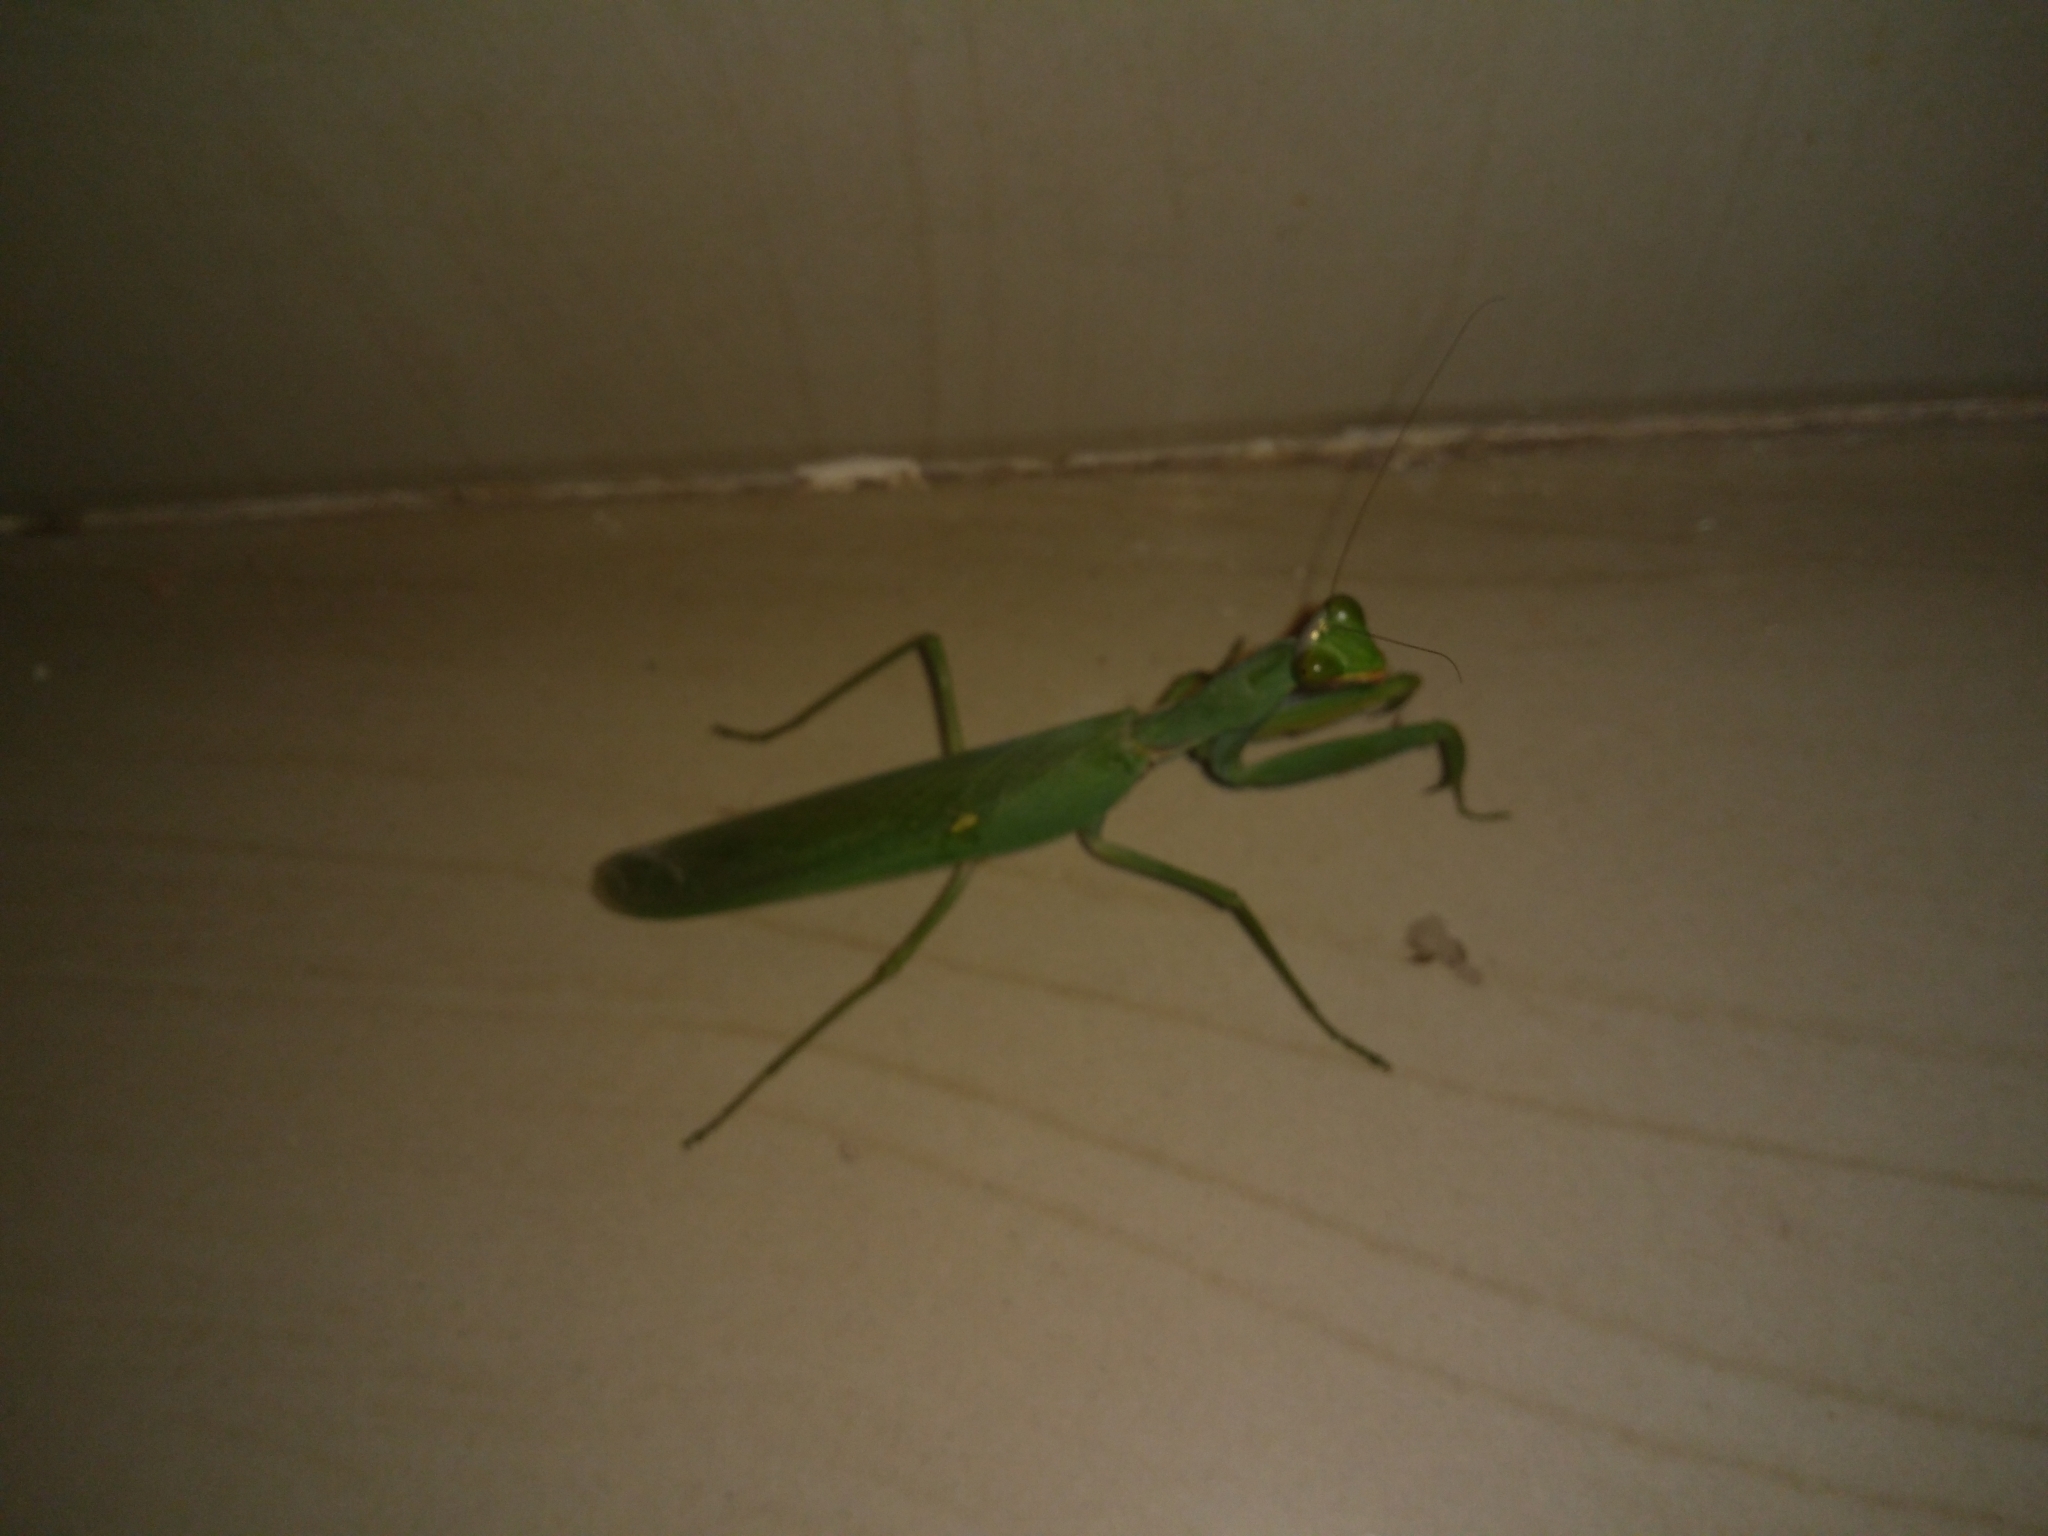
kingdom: Animalia
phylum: Arthropoda
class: Insecta
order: Mantodea
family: Mantidae
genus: Hierodula
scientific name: Hierodula tenuidentata
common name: Giant asian mantis
